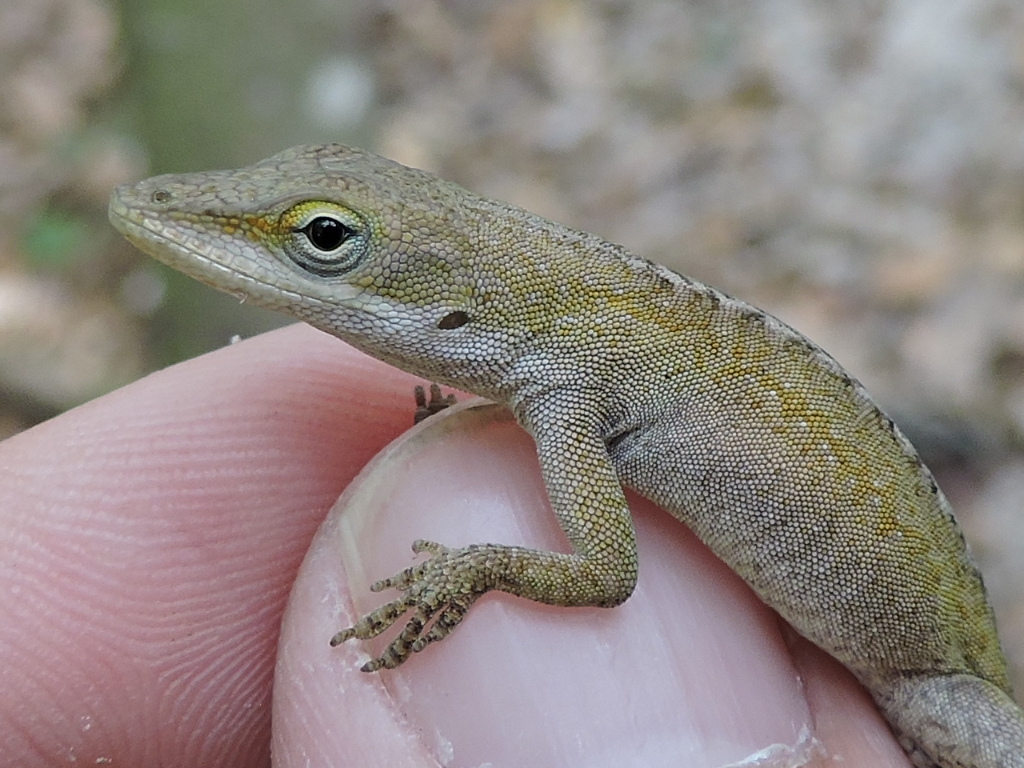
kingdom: Animalia
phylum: Chordata
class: Squamata
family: Dactyloidae
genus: Anolis
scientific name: Anolis carolinensis
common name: Green anole
